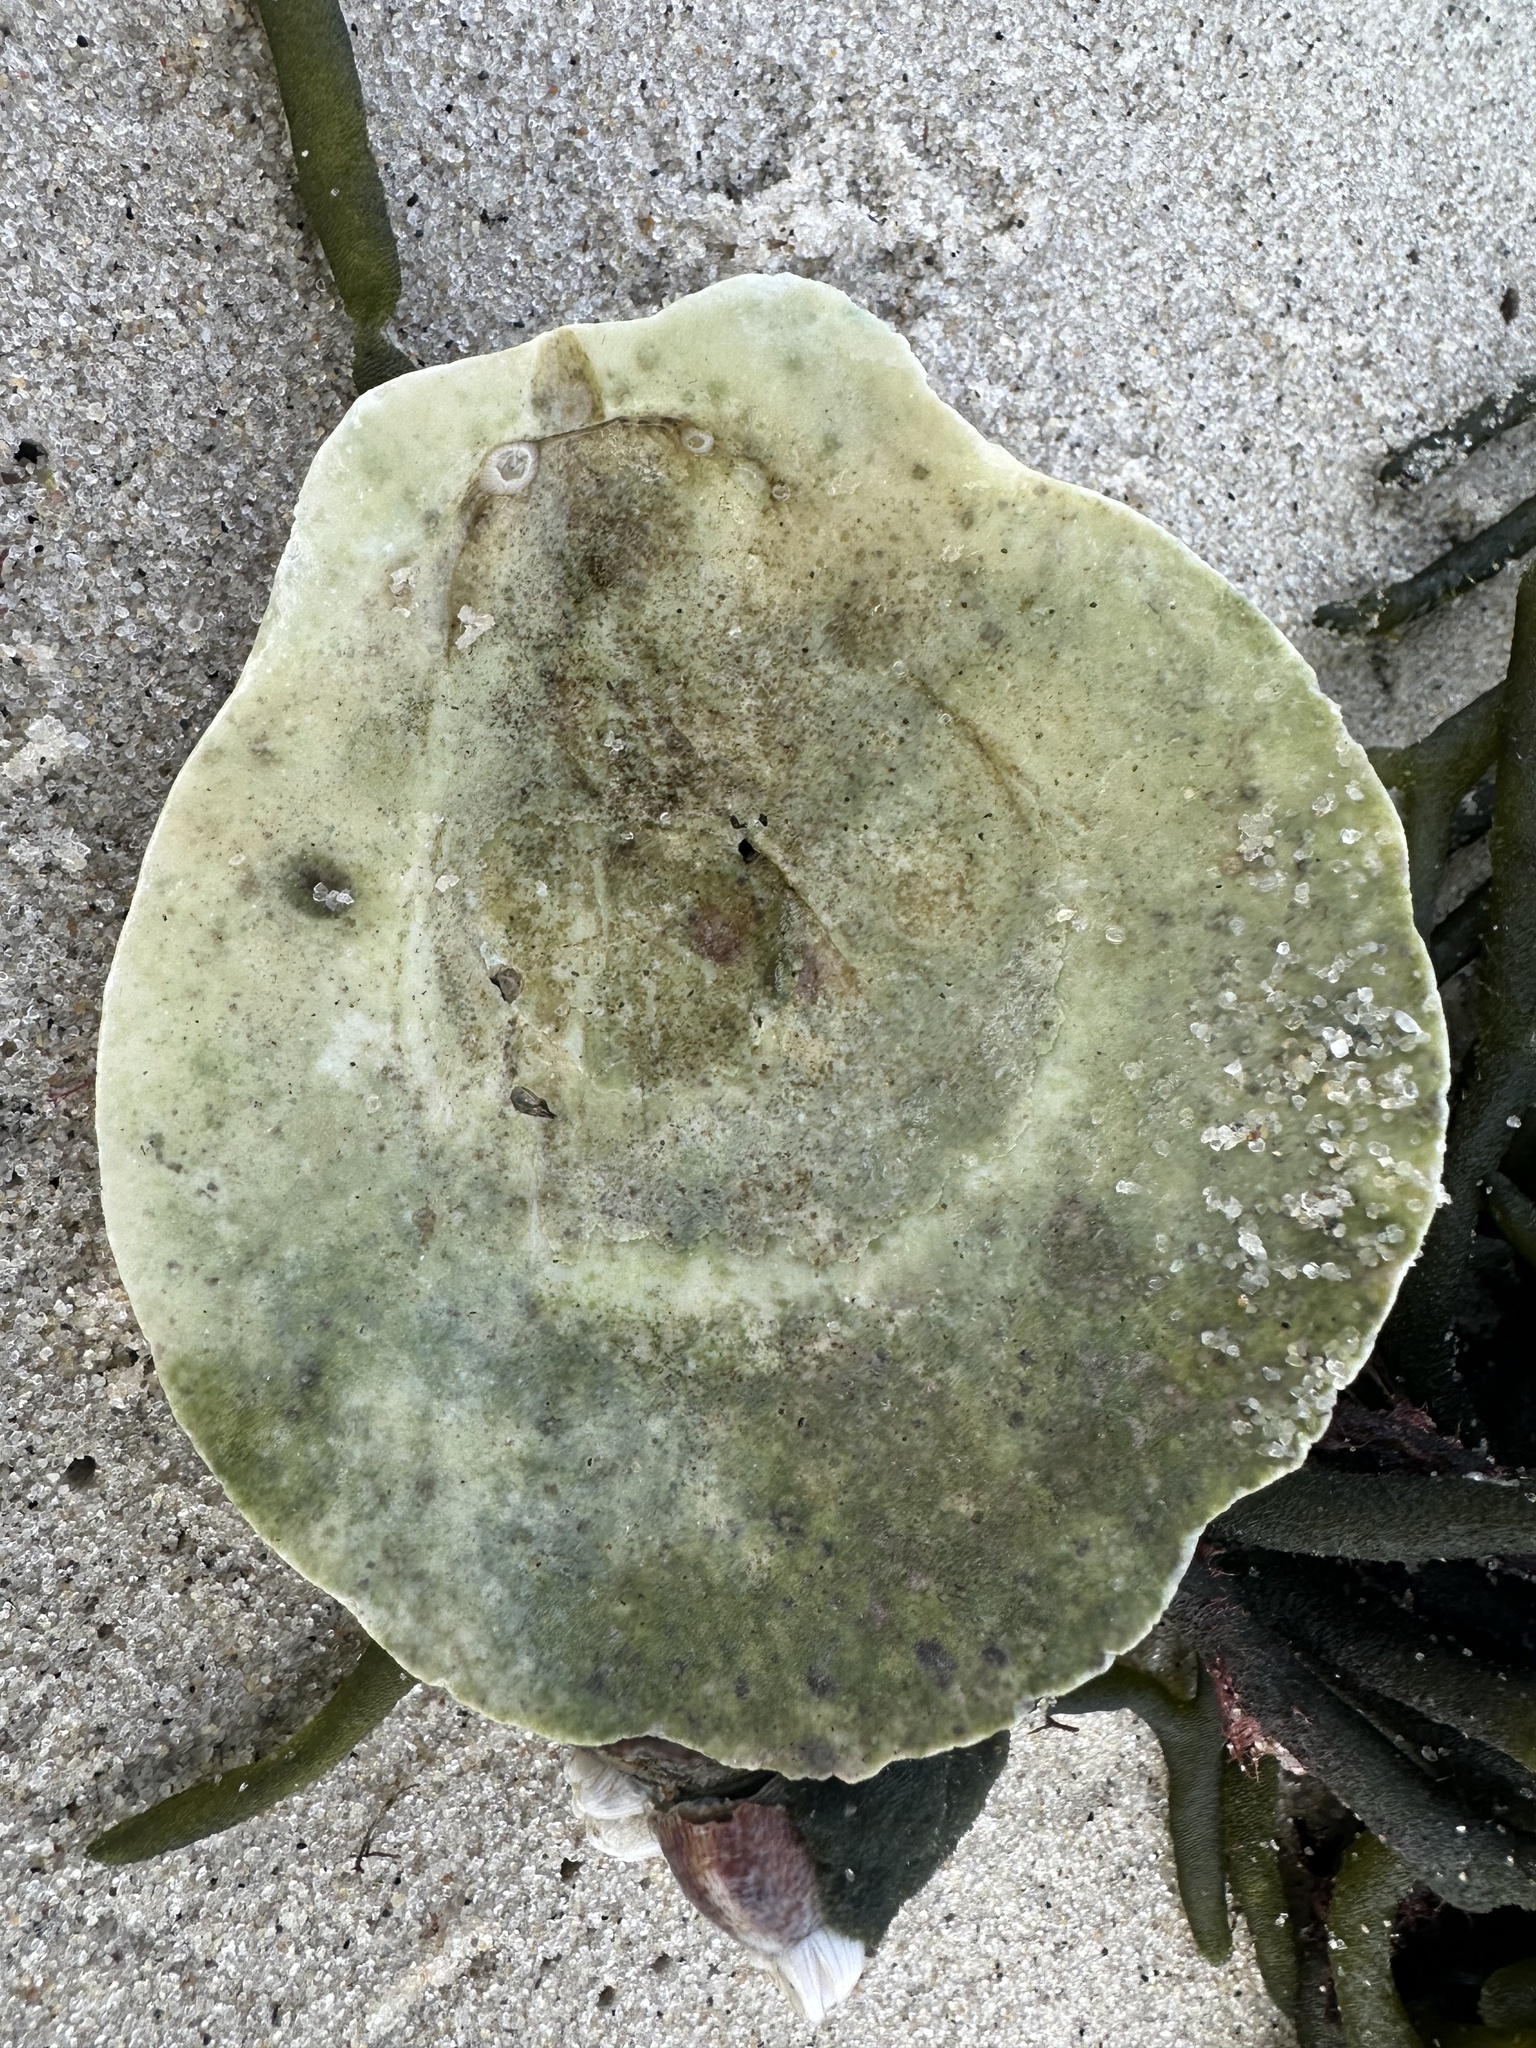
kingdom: Animalia
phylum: Mollusca
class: Bivalvia
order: Pectinida
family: Pectinidae
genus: Placopecten
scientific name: Placopecten magellanicus
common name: American sea scallop
